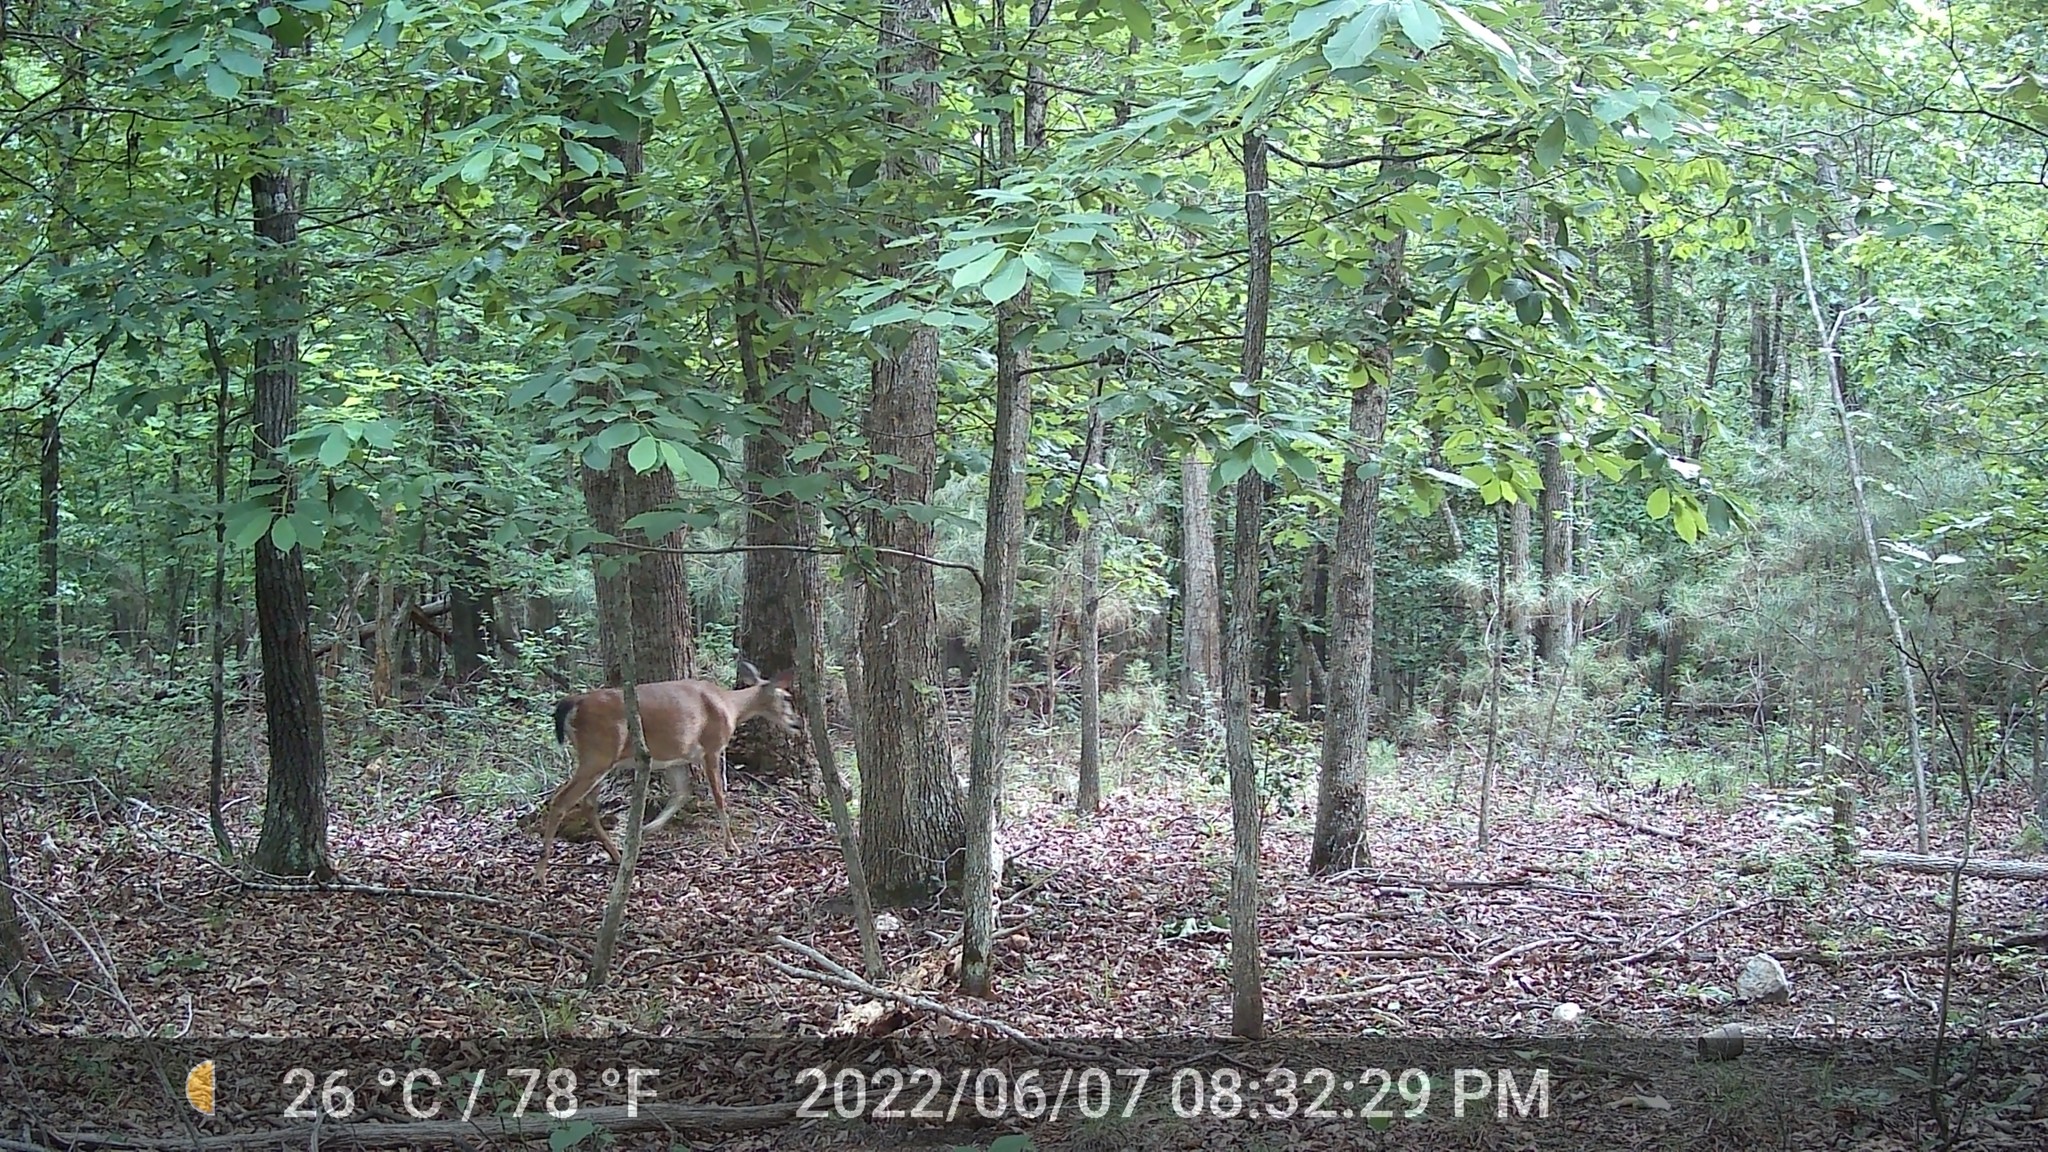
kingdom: Animalia
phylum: Chordata
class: Mammalia
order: Artiodactyla
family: Cervidae
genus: Odocoileus
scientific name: Odocoileus virginianus
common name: White-tailed deer
